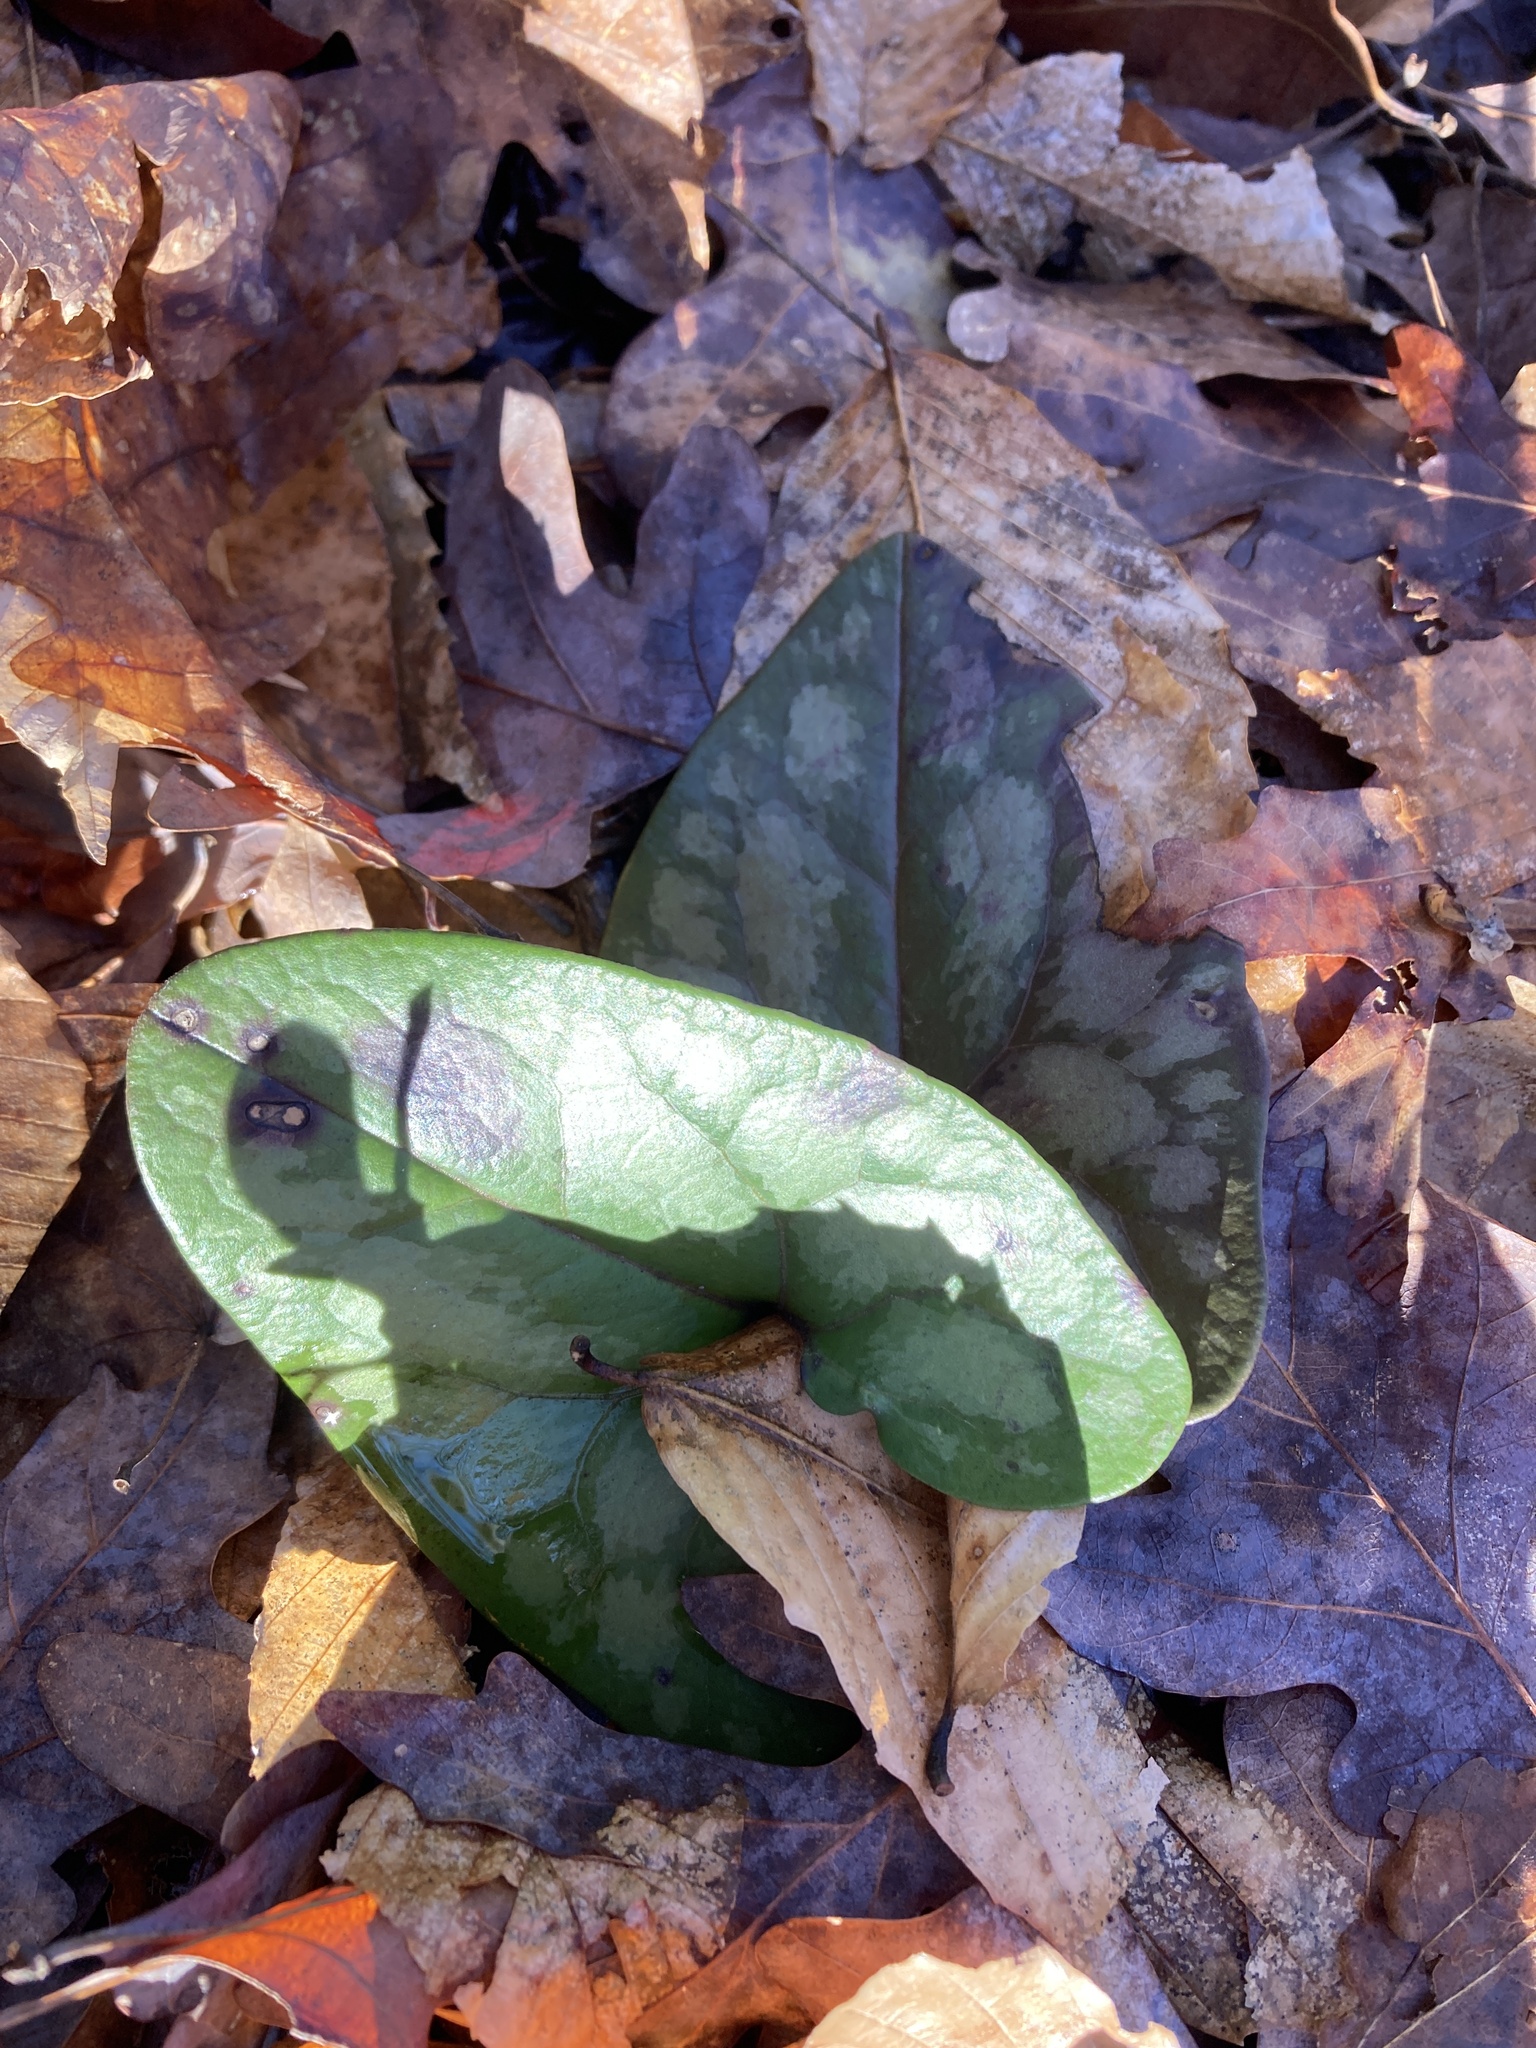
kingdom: Plantae
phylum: Tracheophyta
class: Magnoliopsida
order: Piperales
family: Aristolochiaceae
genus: Hexastylis
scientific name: Hexastylis arifolia
